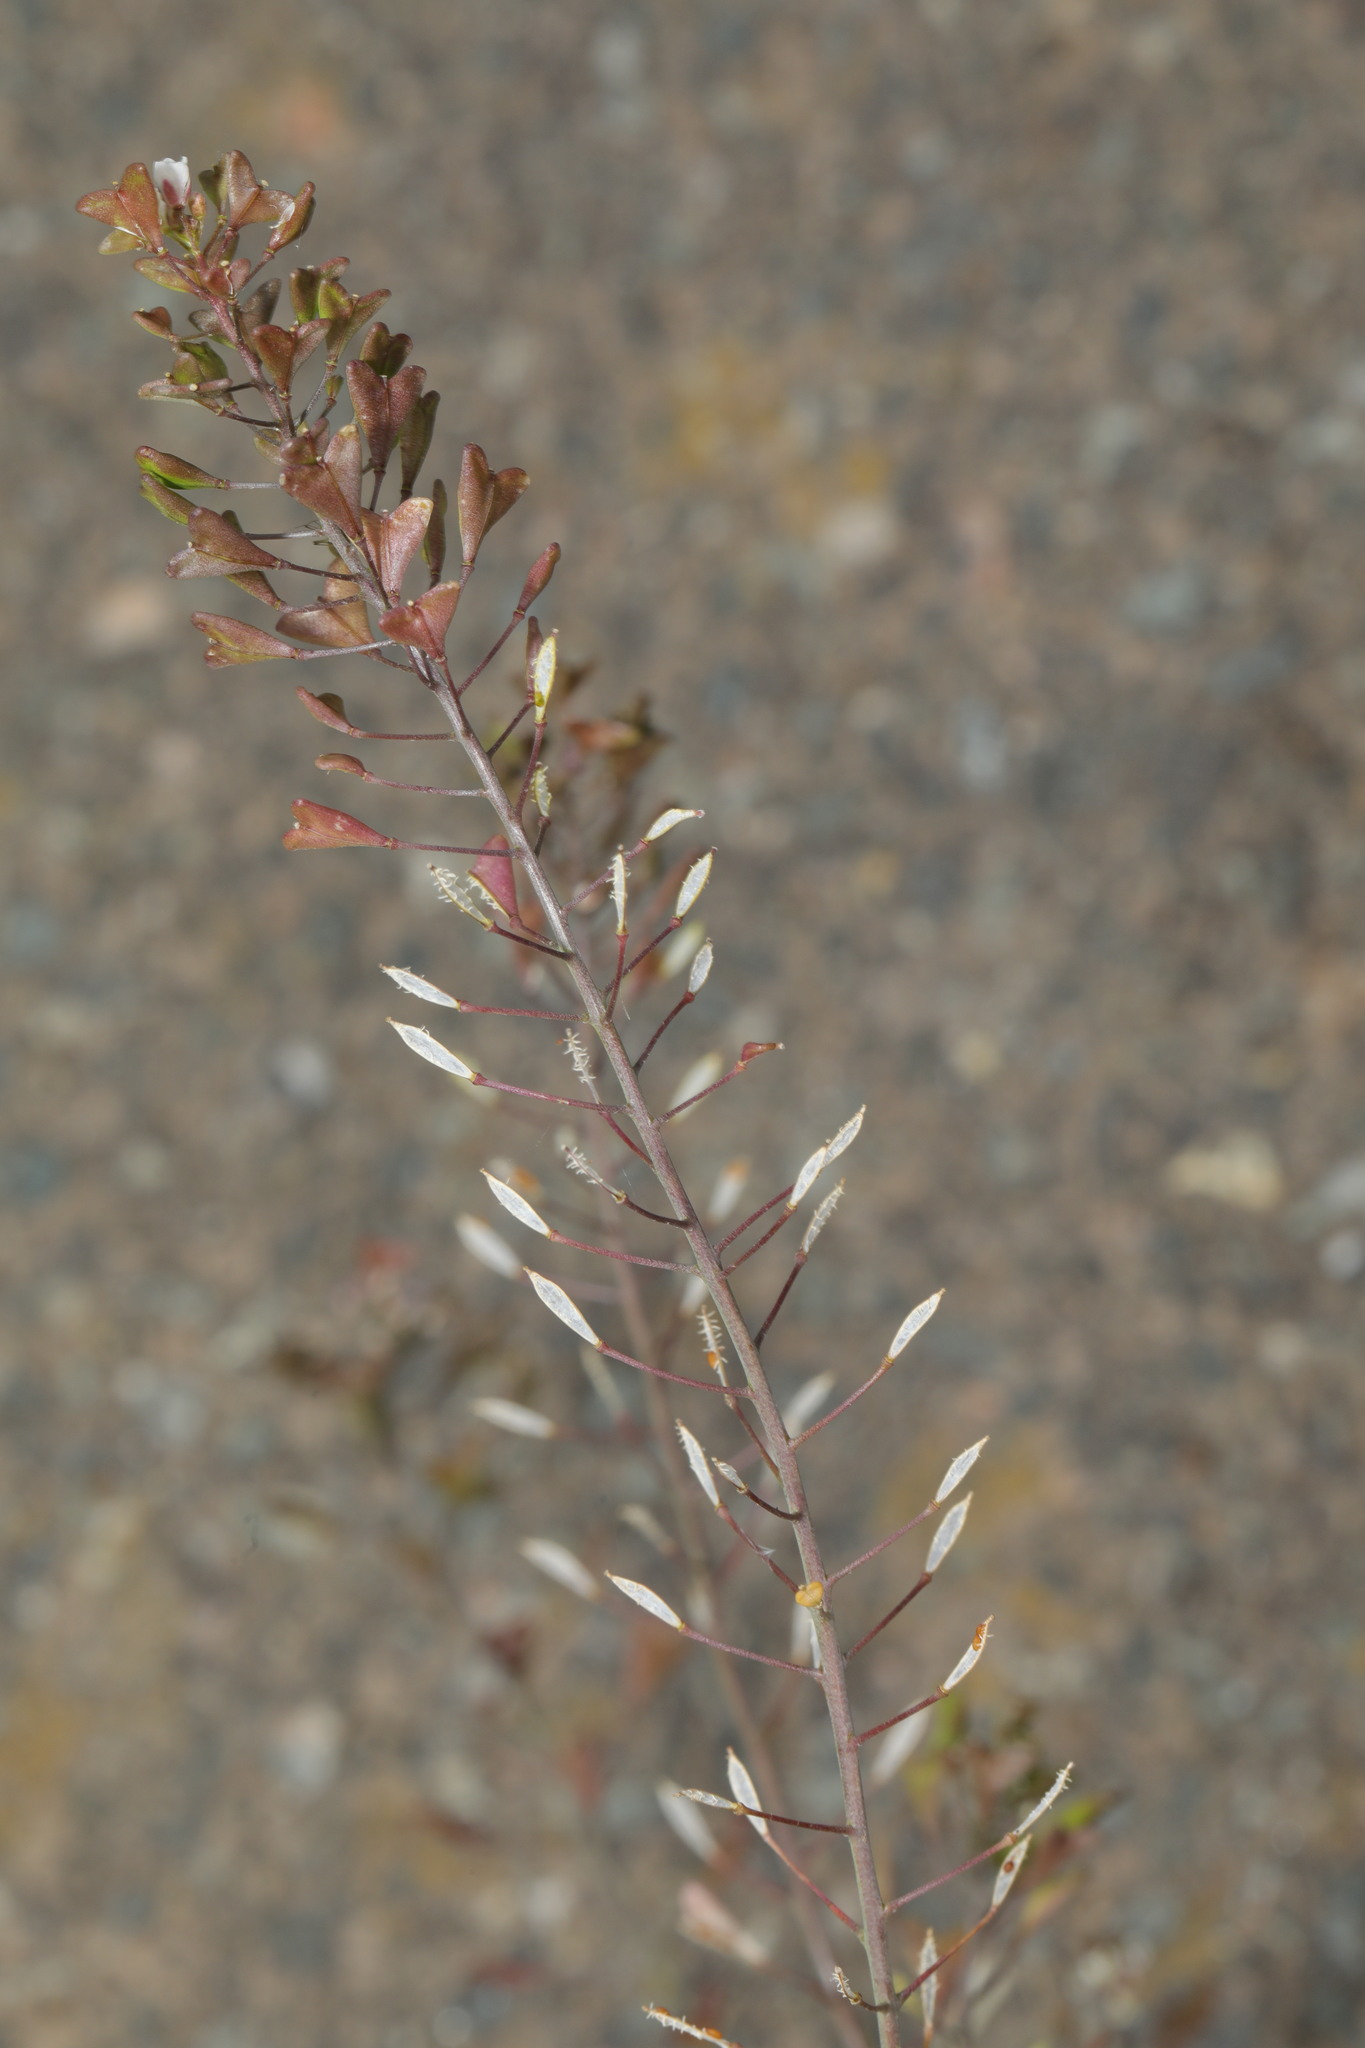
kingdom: Plantae
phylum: Tracheophyta
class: Magnoliopsida
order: Brassicales
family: Brassicaceae
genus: Capsella
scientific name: Capsella bursa-pastoris
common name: Shepherd's purse
